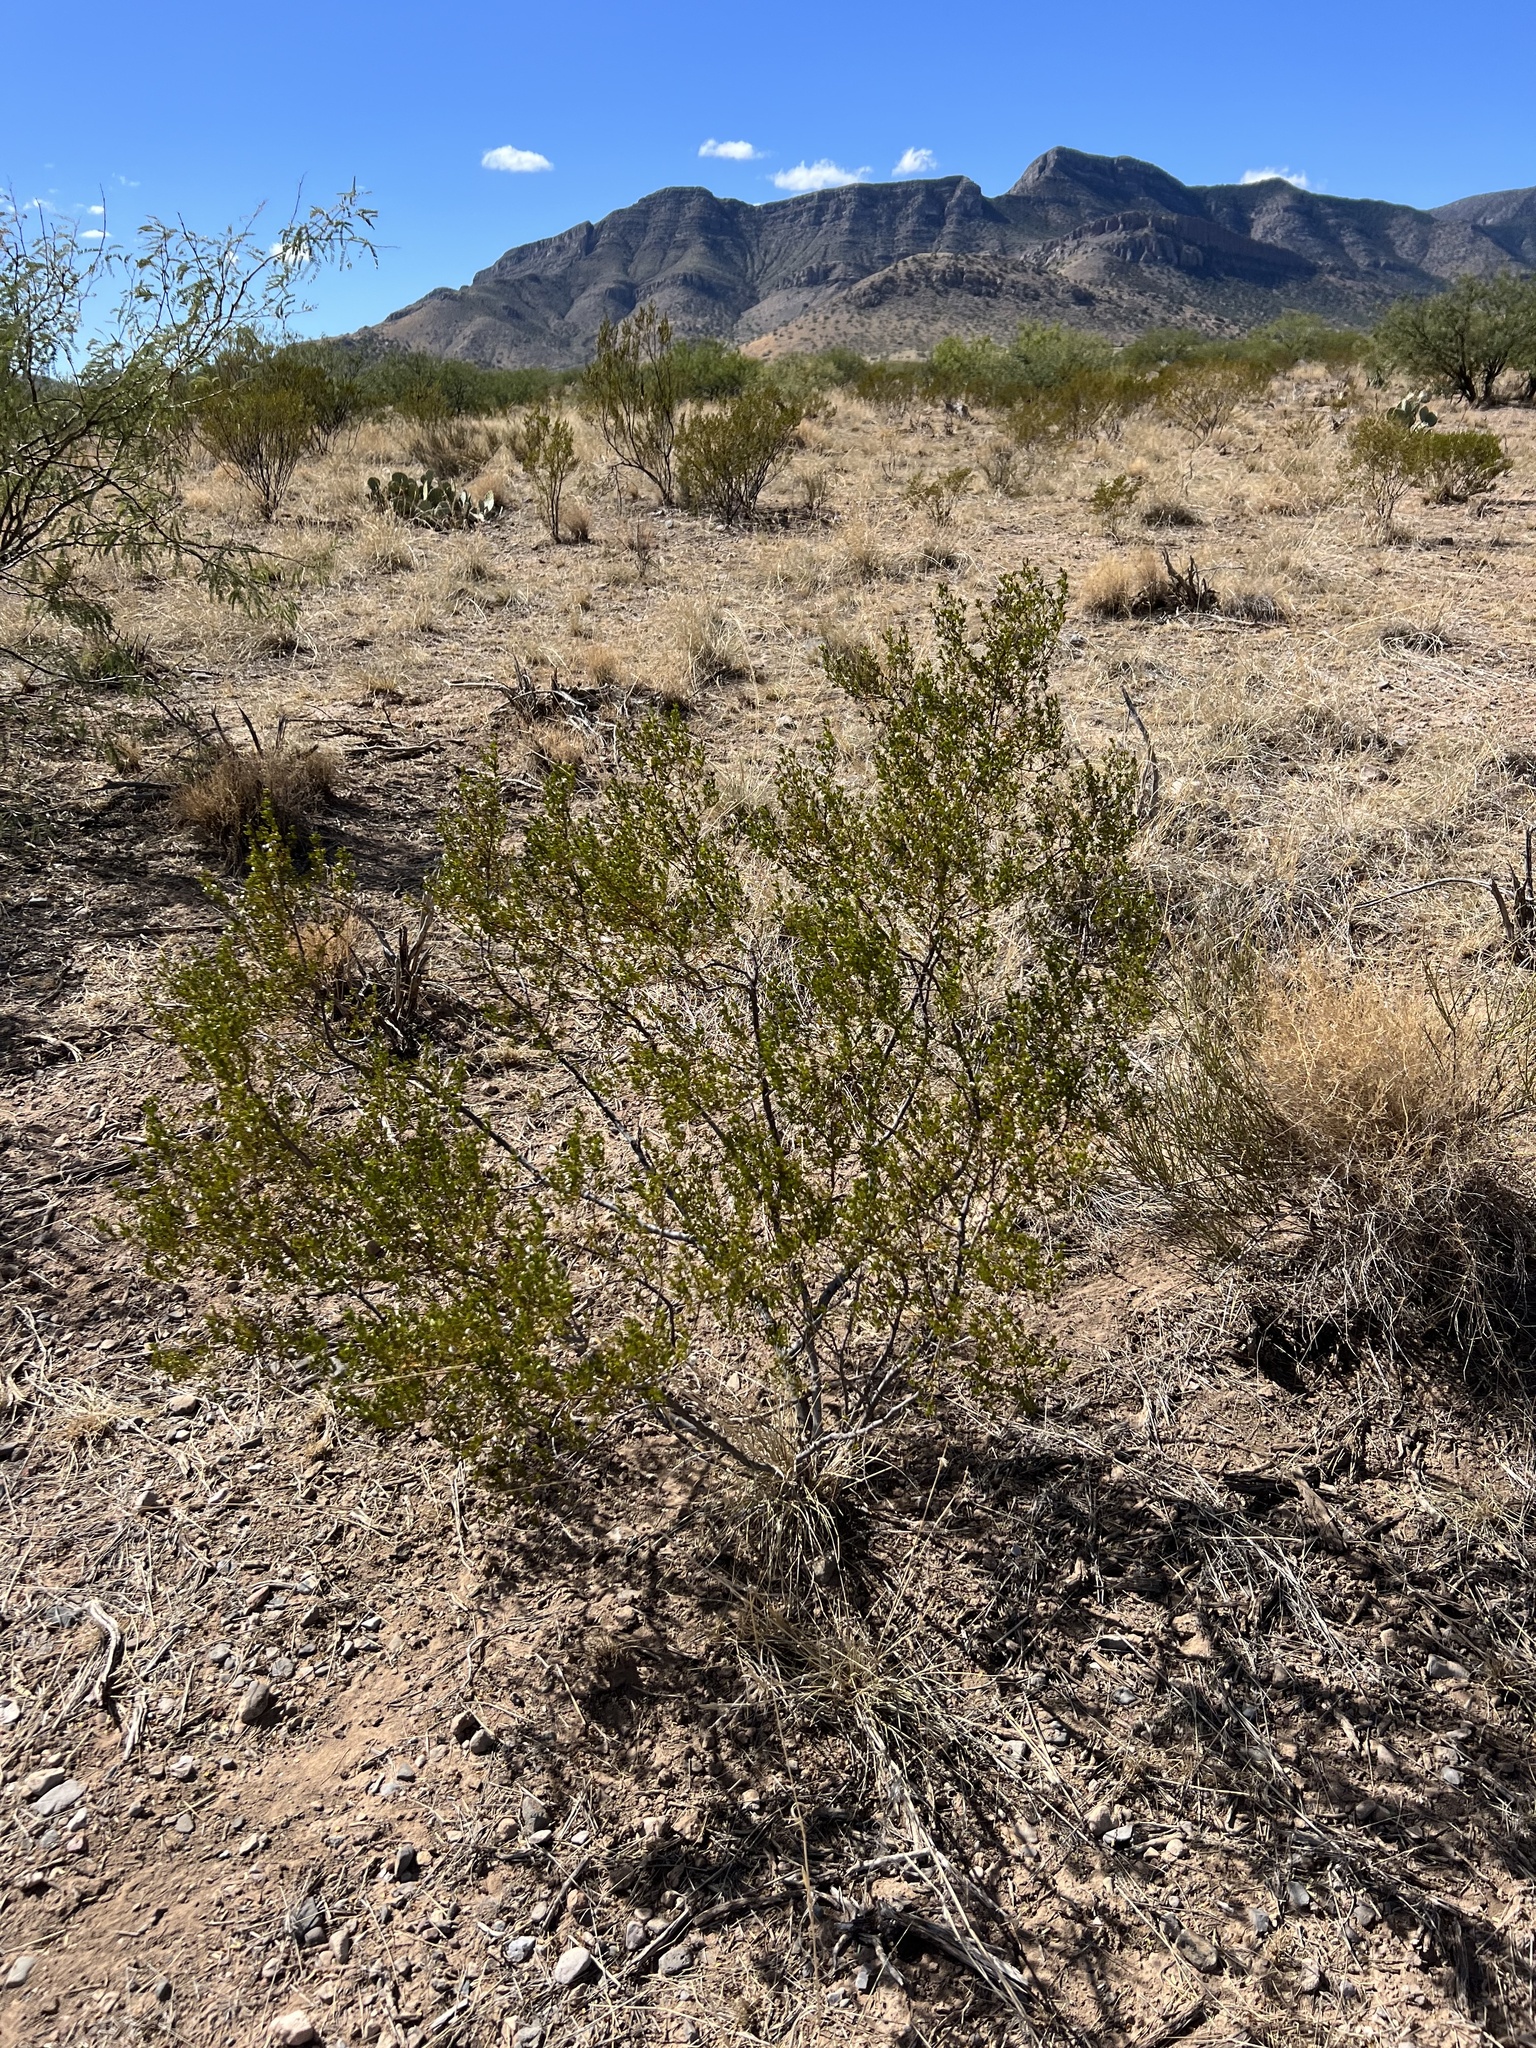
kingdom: Plantae
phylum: Tracheophyta
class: Magnoliopsida
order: Zygophyllales
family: Zygophyllaceae
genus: Larrea
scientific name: Larrea tridentata
